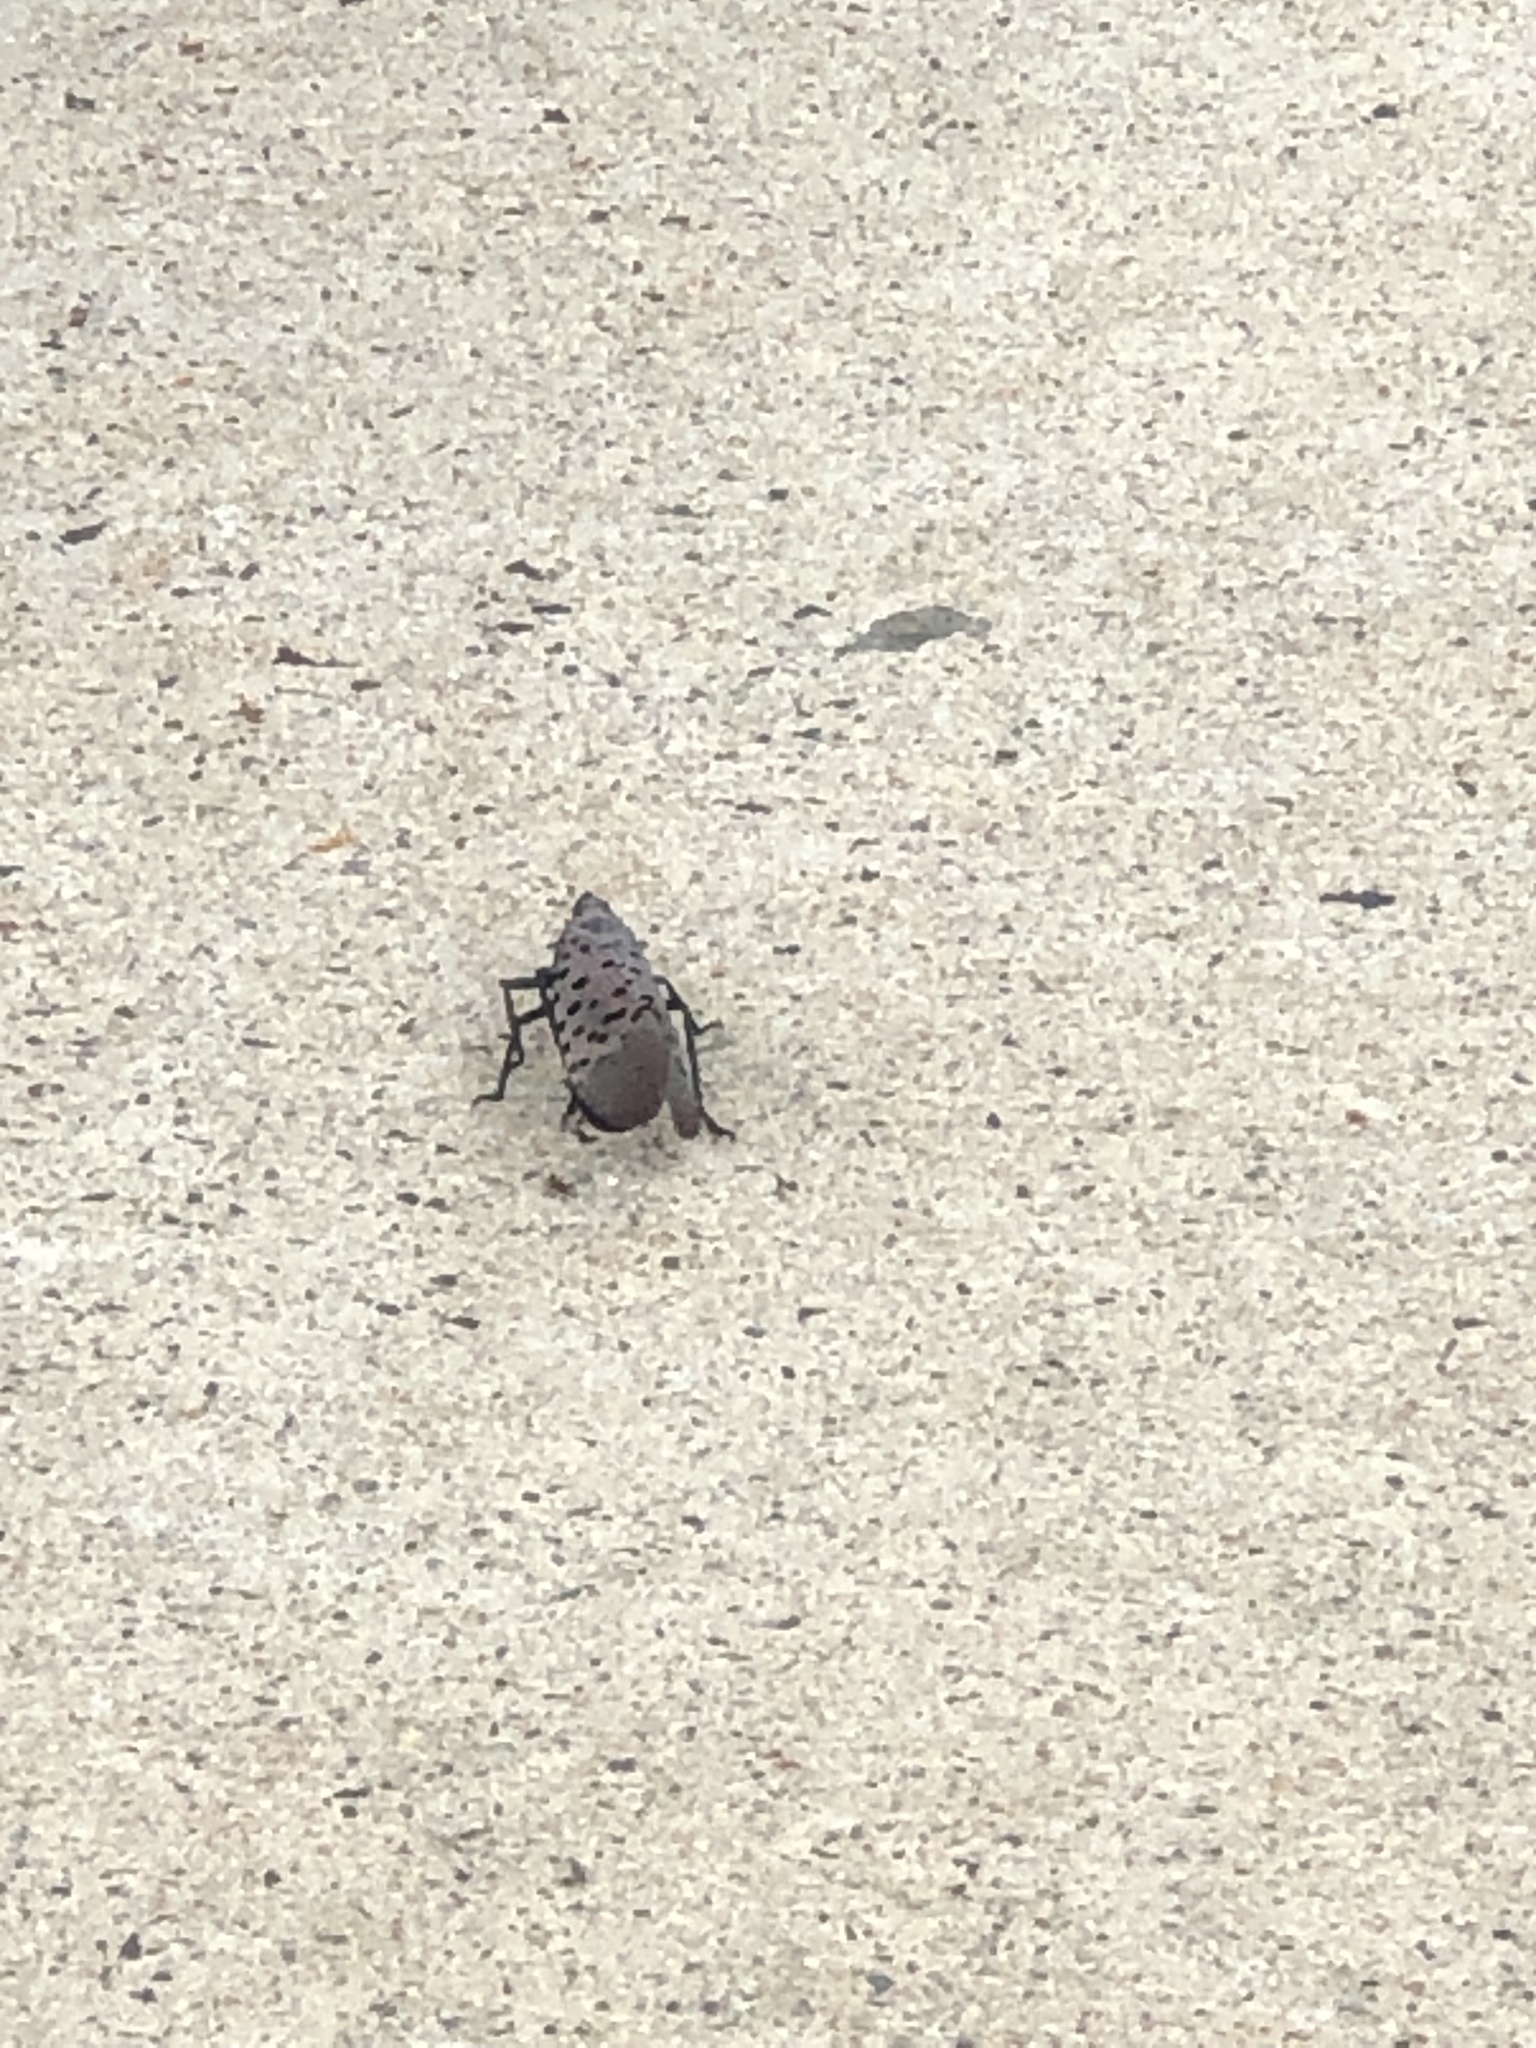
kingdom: Animalia
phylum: Arthropoda
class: Insecta
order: Hemiptera
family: Fulgoridae
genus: Lycorma
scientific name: Lycorma delicatula
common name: Spotted lanternfly
